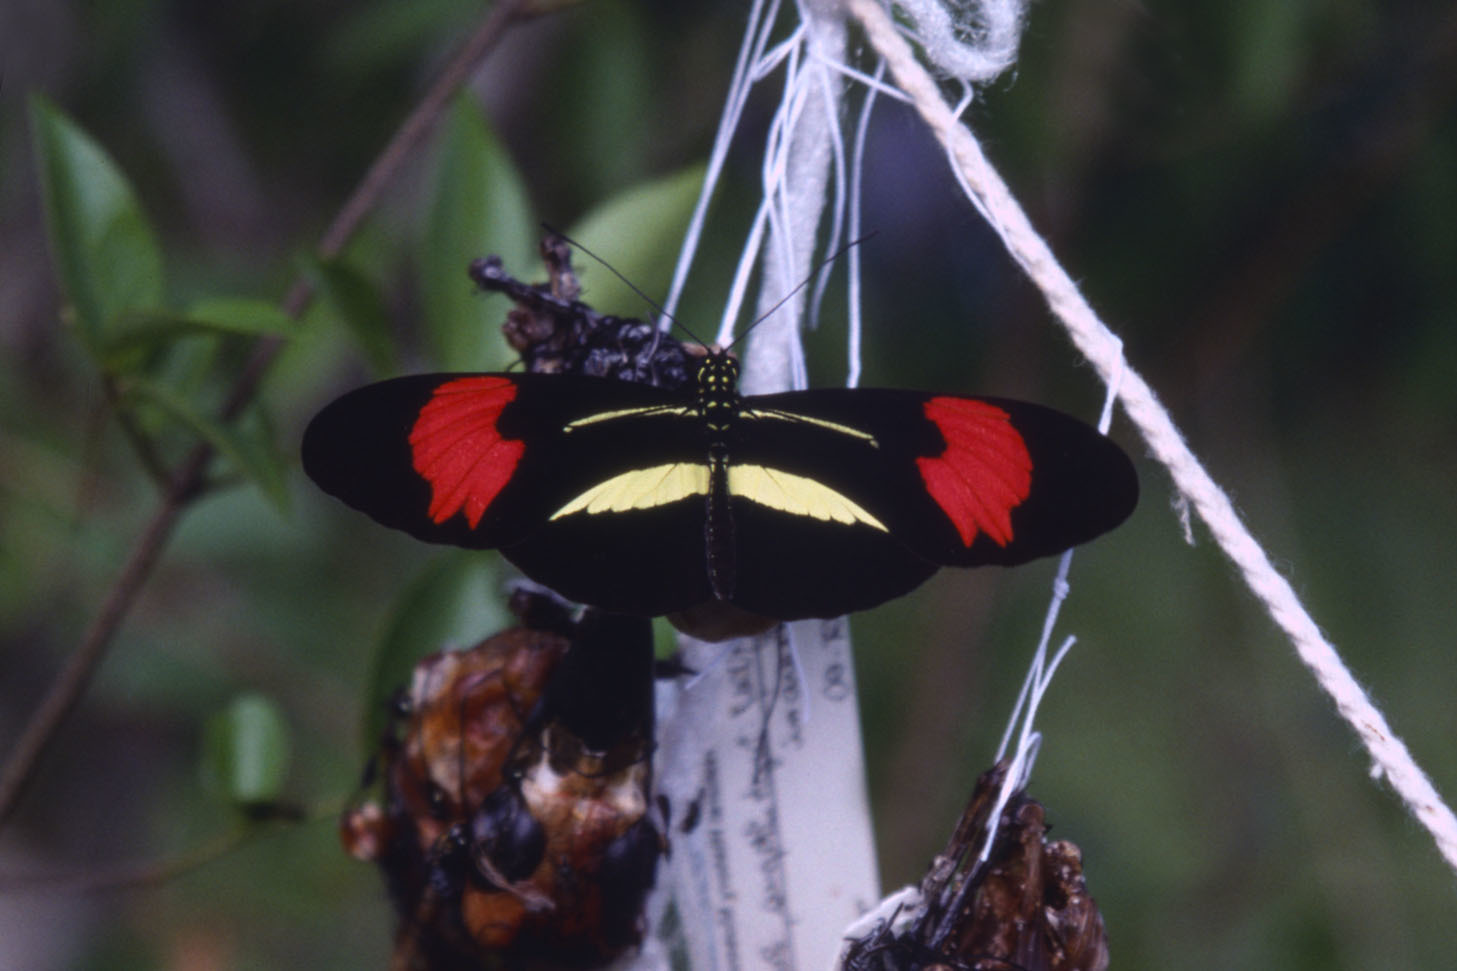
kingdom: Animalia
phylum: Arthropoda
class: Insecta
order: Lepidoptera
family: Nymphalidae
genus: Heliconius
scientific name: Heliconius erato
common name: Common patch longwing
